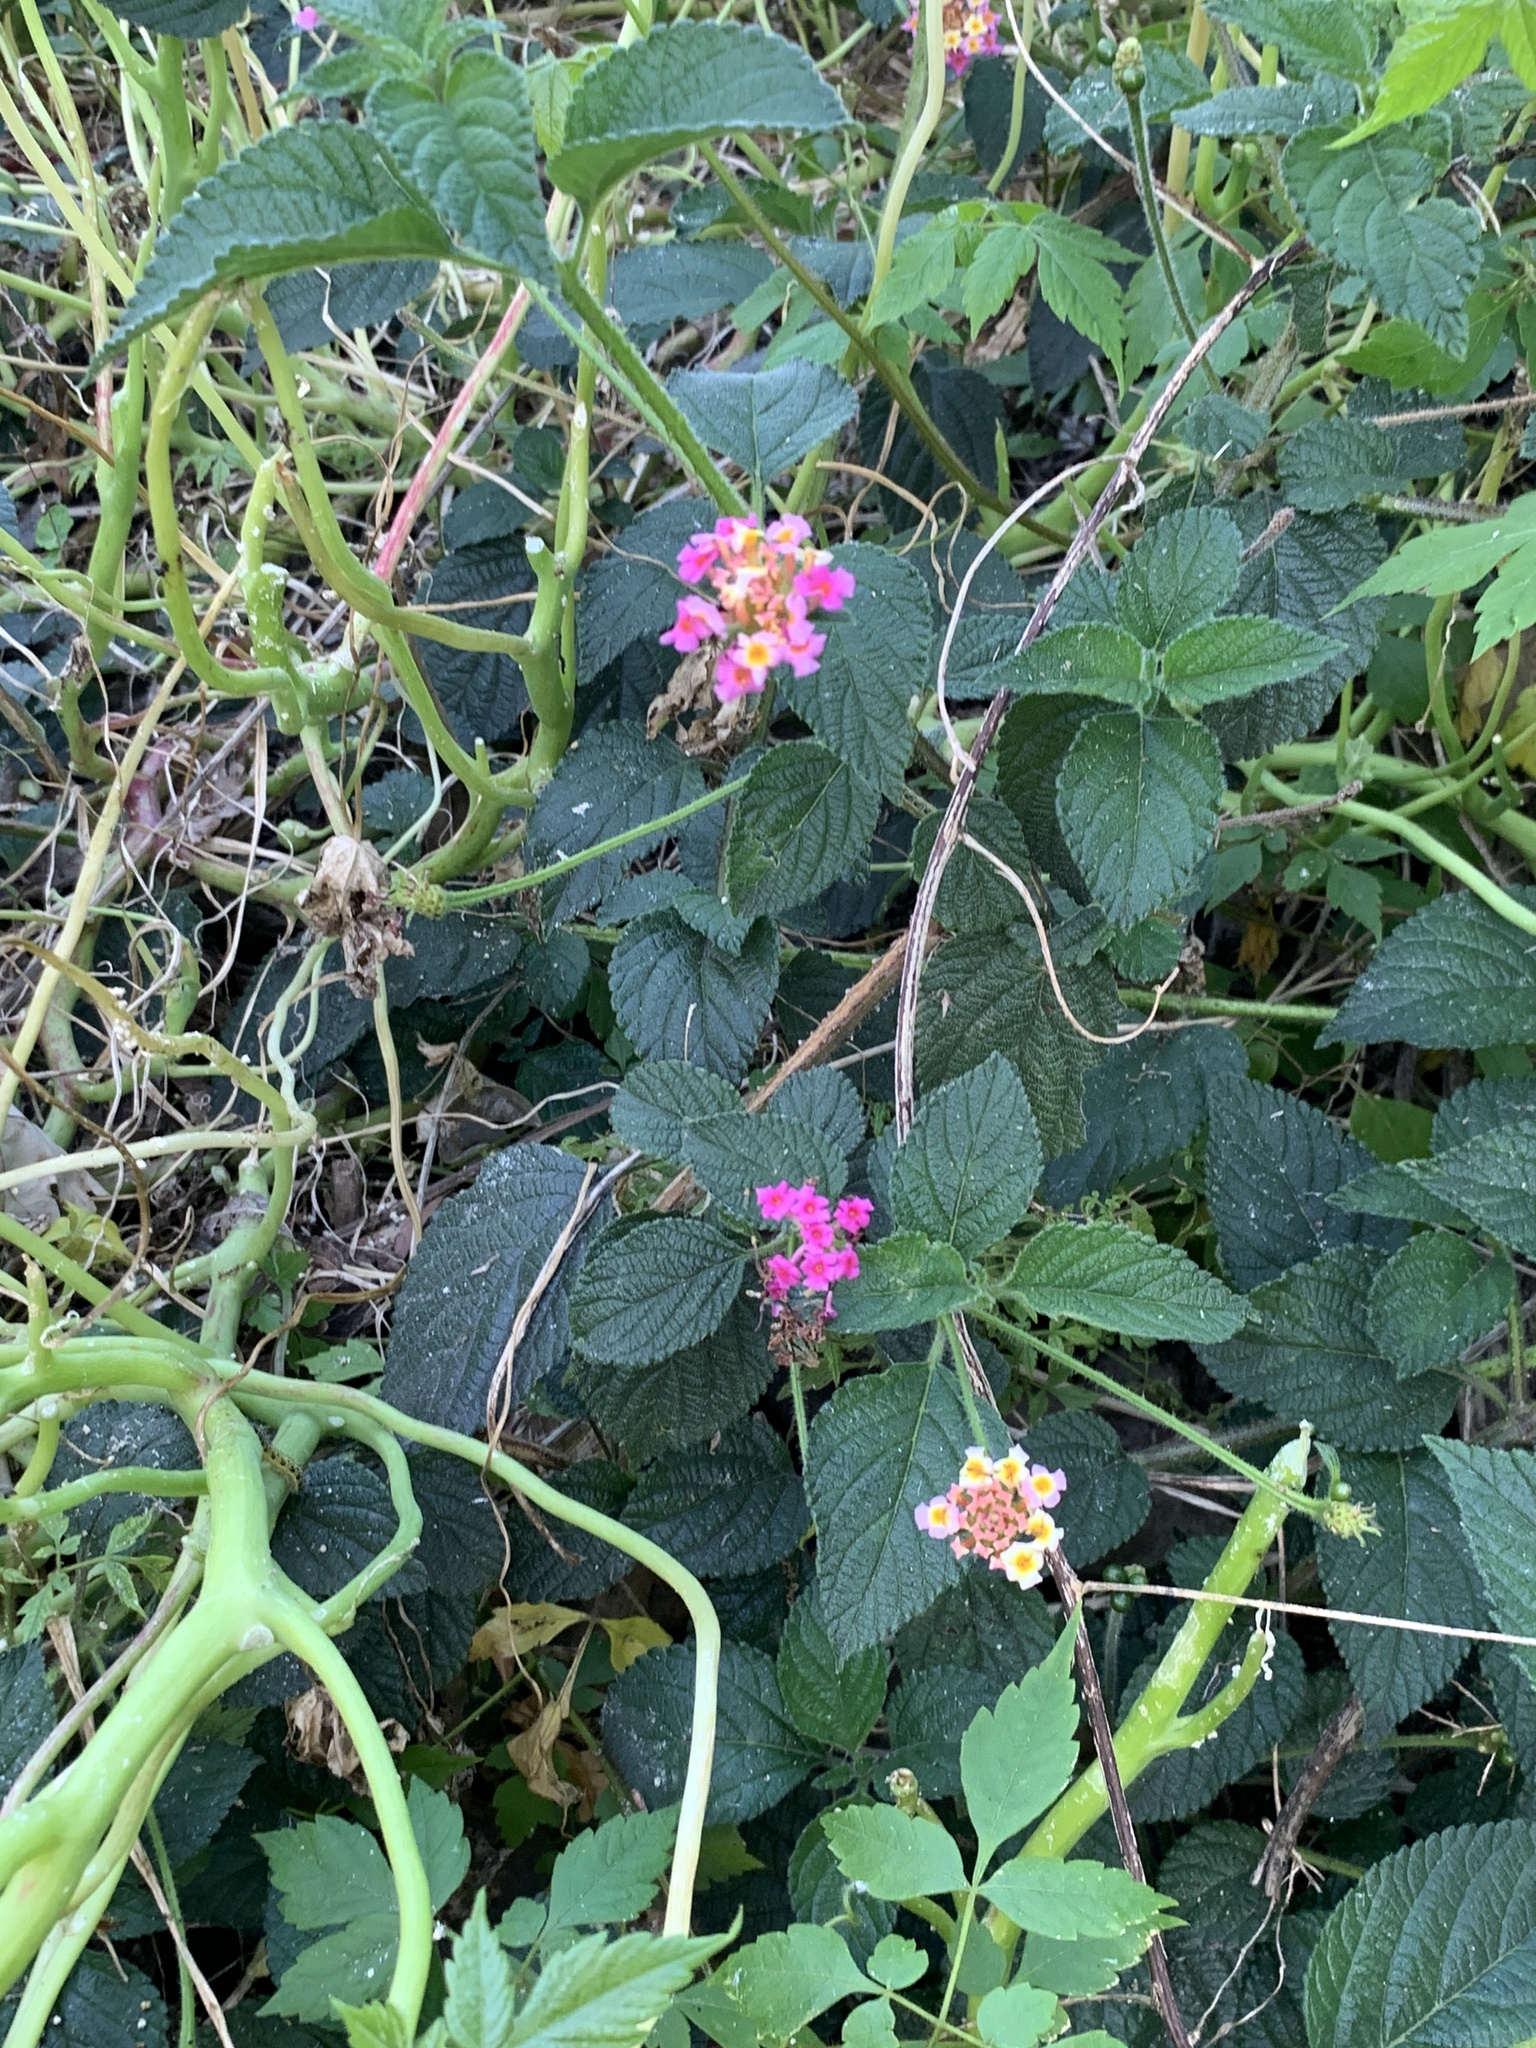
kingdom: Plantae
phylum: Tracheophyta
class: Magnoliopsida
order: Lamiales
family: Verbenaceae
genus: Lantana
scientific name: Lantana camara
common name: Lantana
